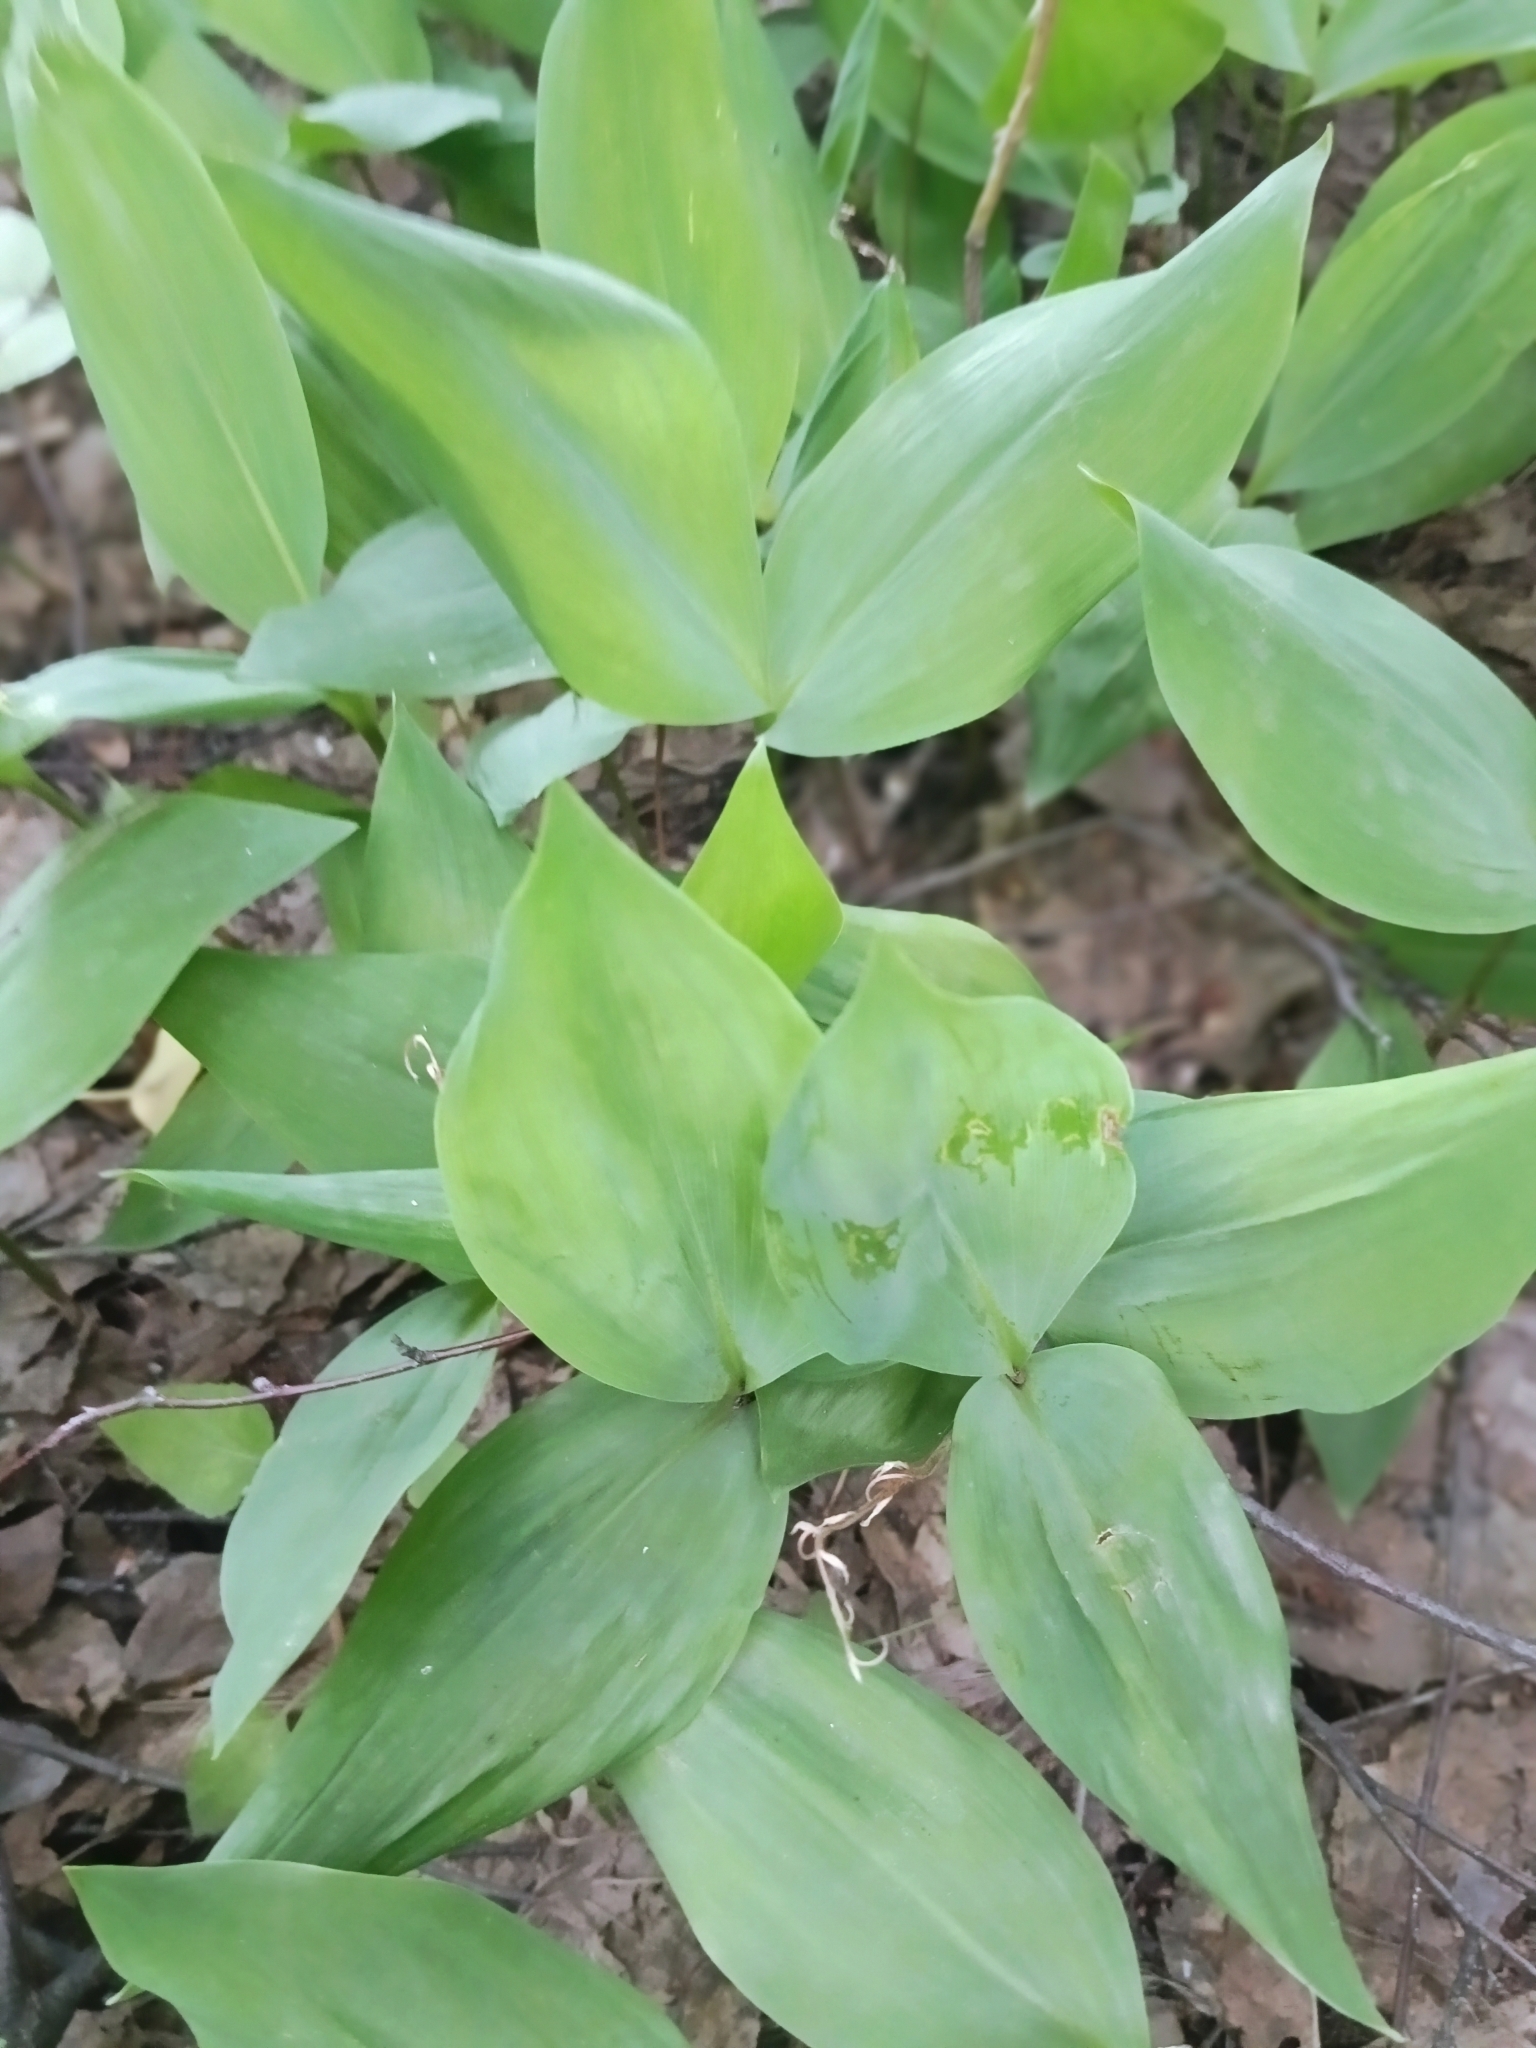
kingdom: Plantae
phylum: Tracheophyta
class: Liliopsida
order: Asparagales
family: Asparagaceae
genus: Convallaria
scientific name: Convallaria majalis
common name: Lily-of-the-valley
